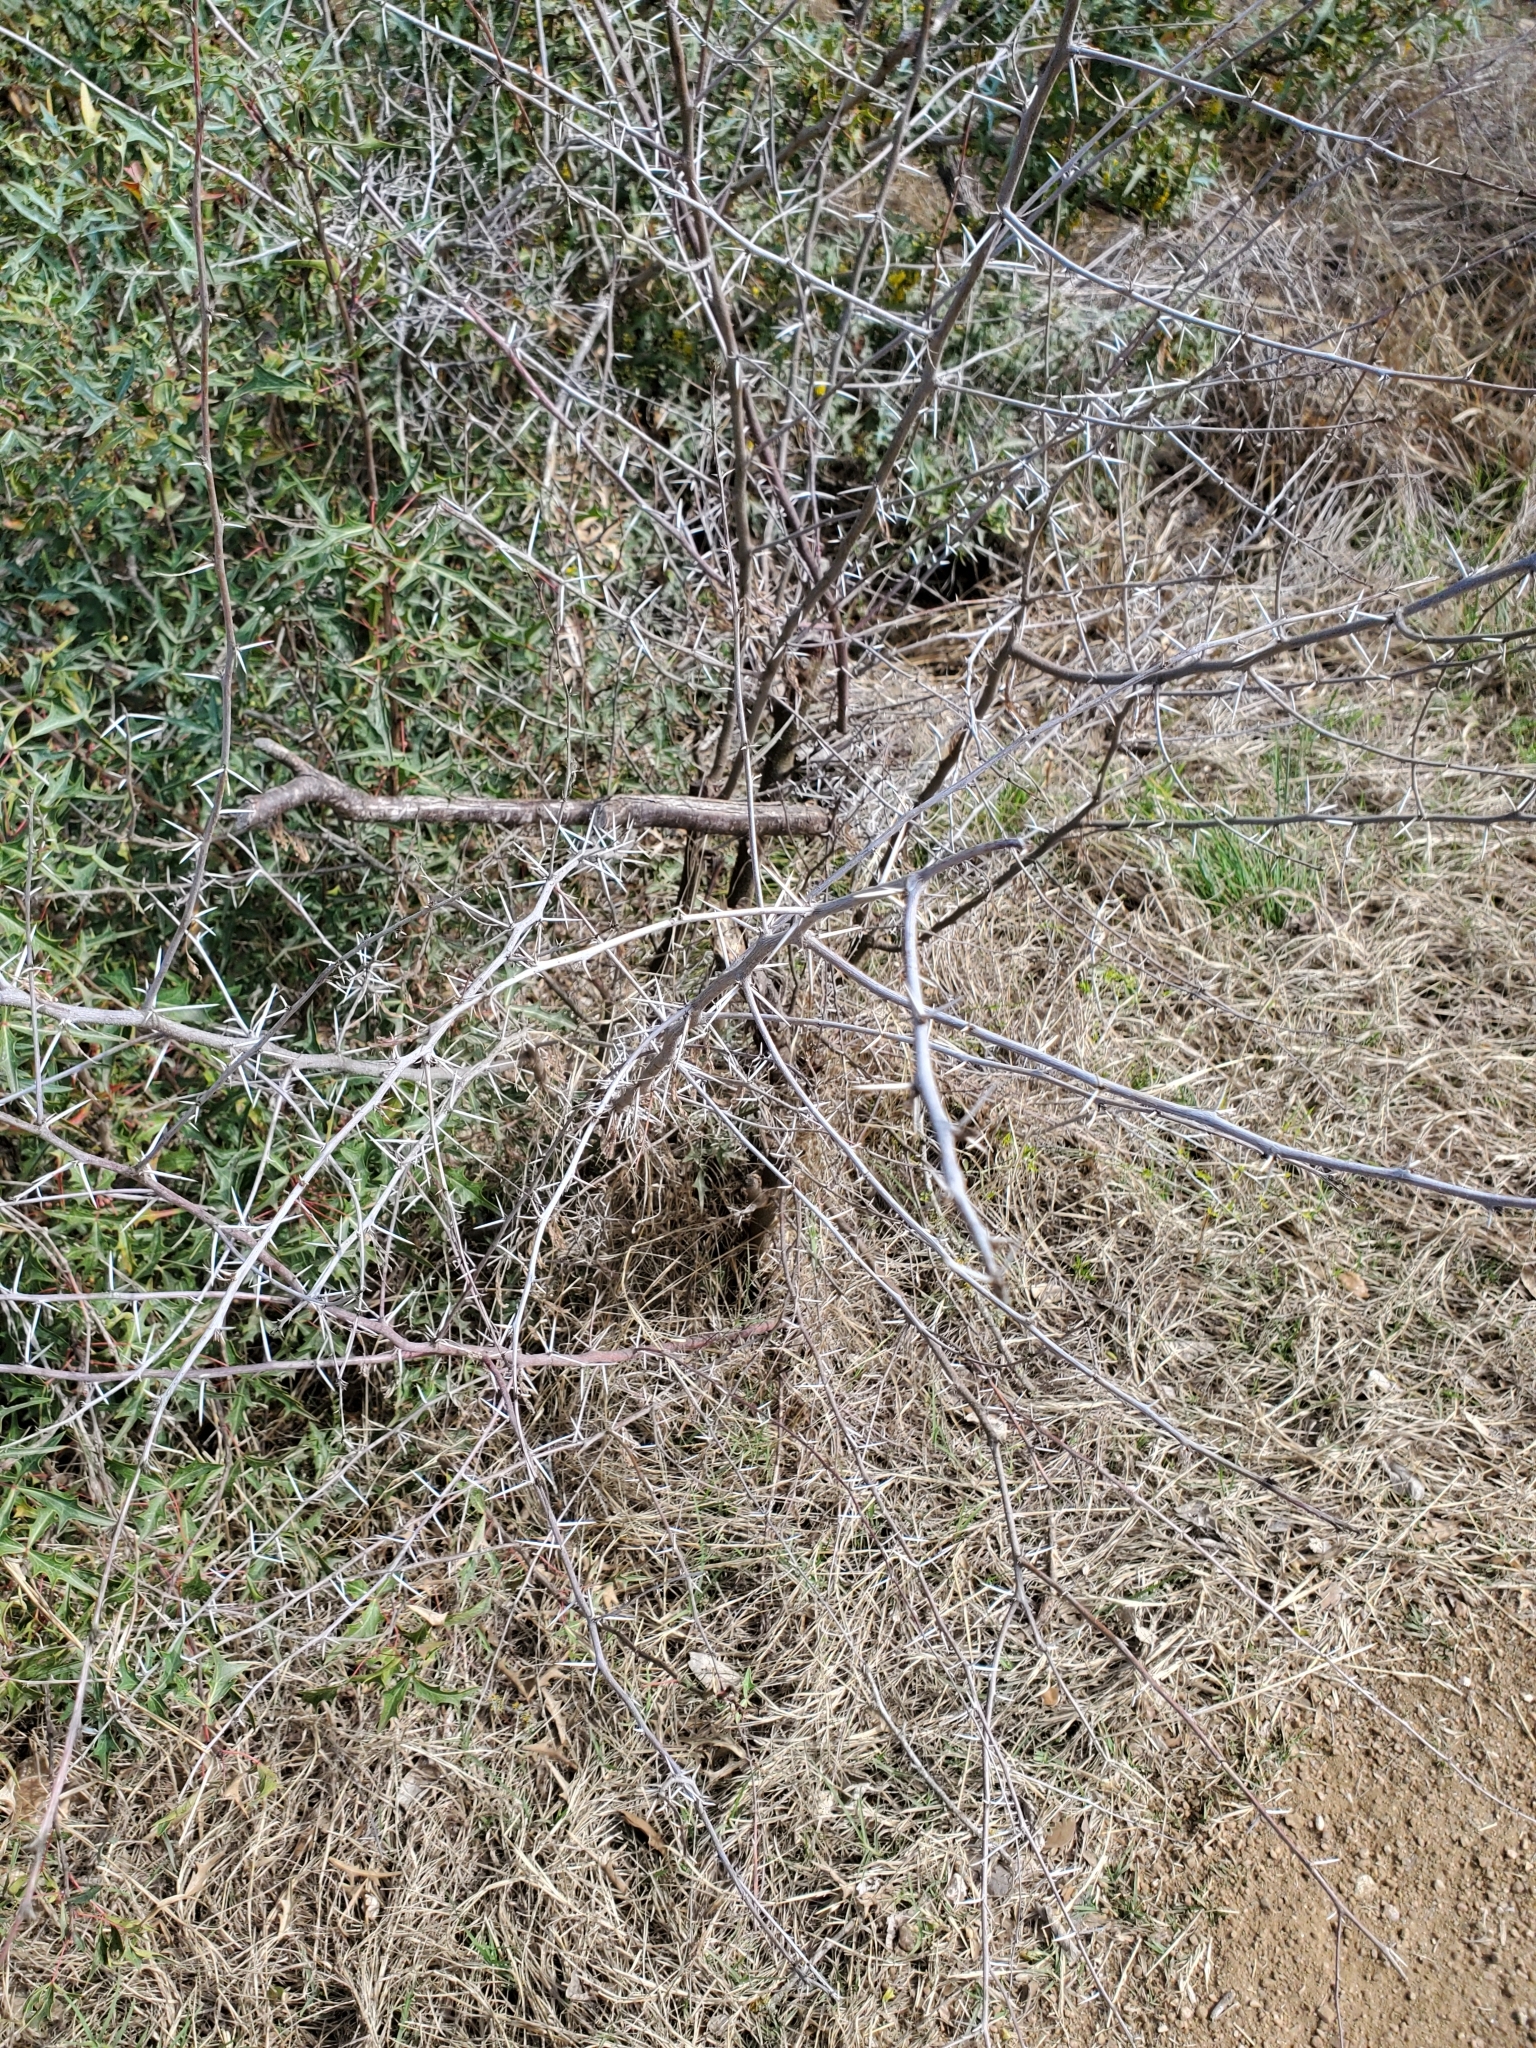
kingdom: Plantae
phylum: Tracheophyta
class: Magnoliopsida
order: Fabales
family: Fabaceae
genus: Vachellia
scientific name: Vachellia farnesiana
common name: Sweet acacia
